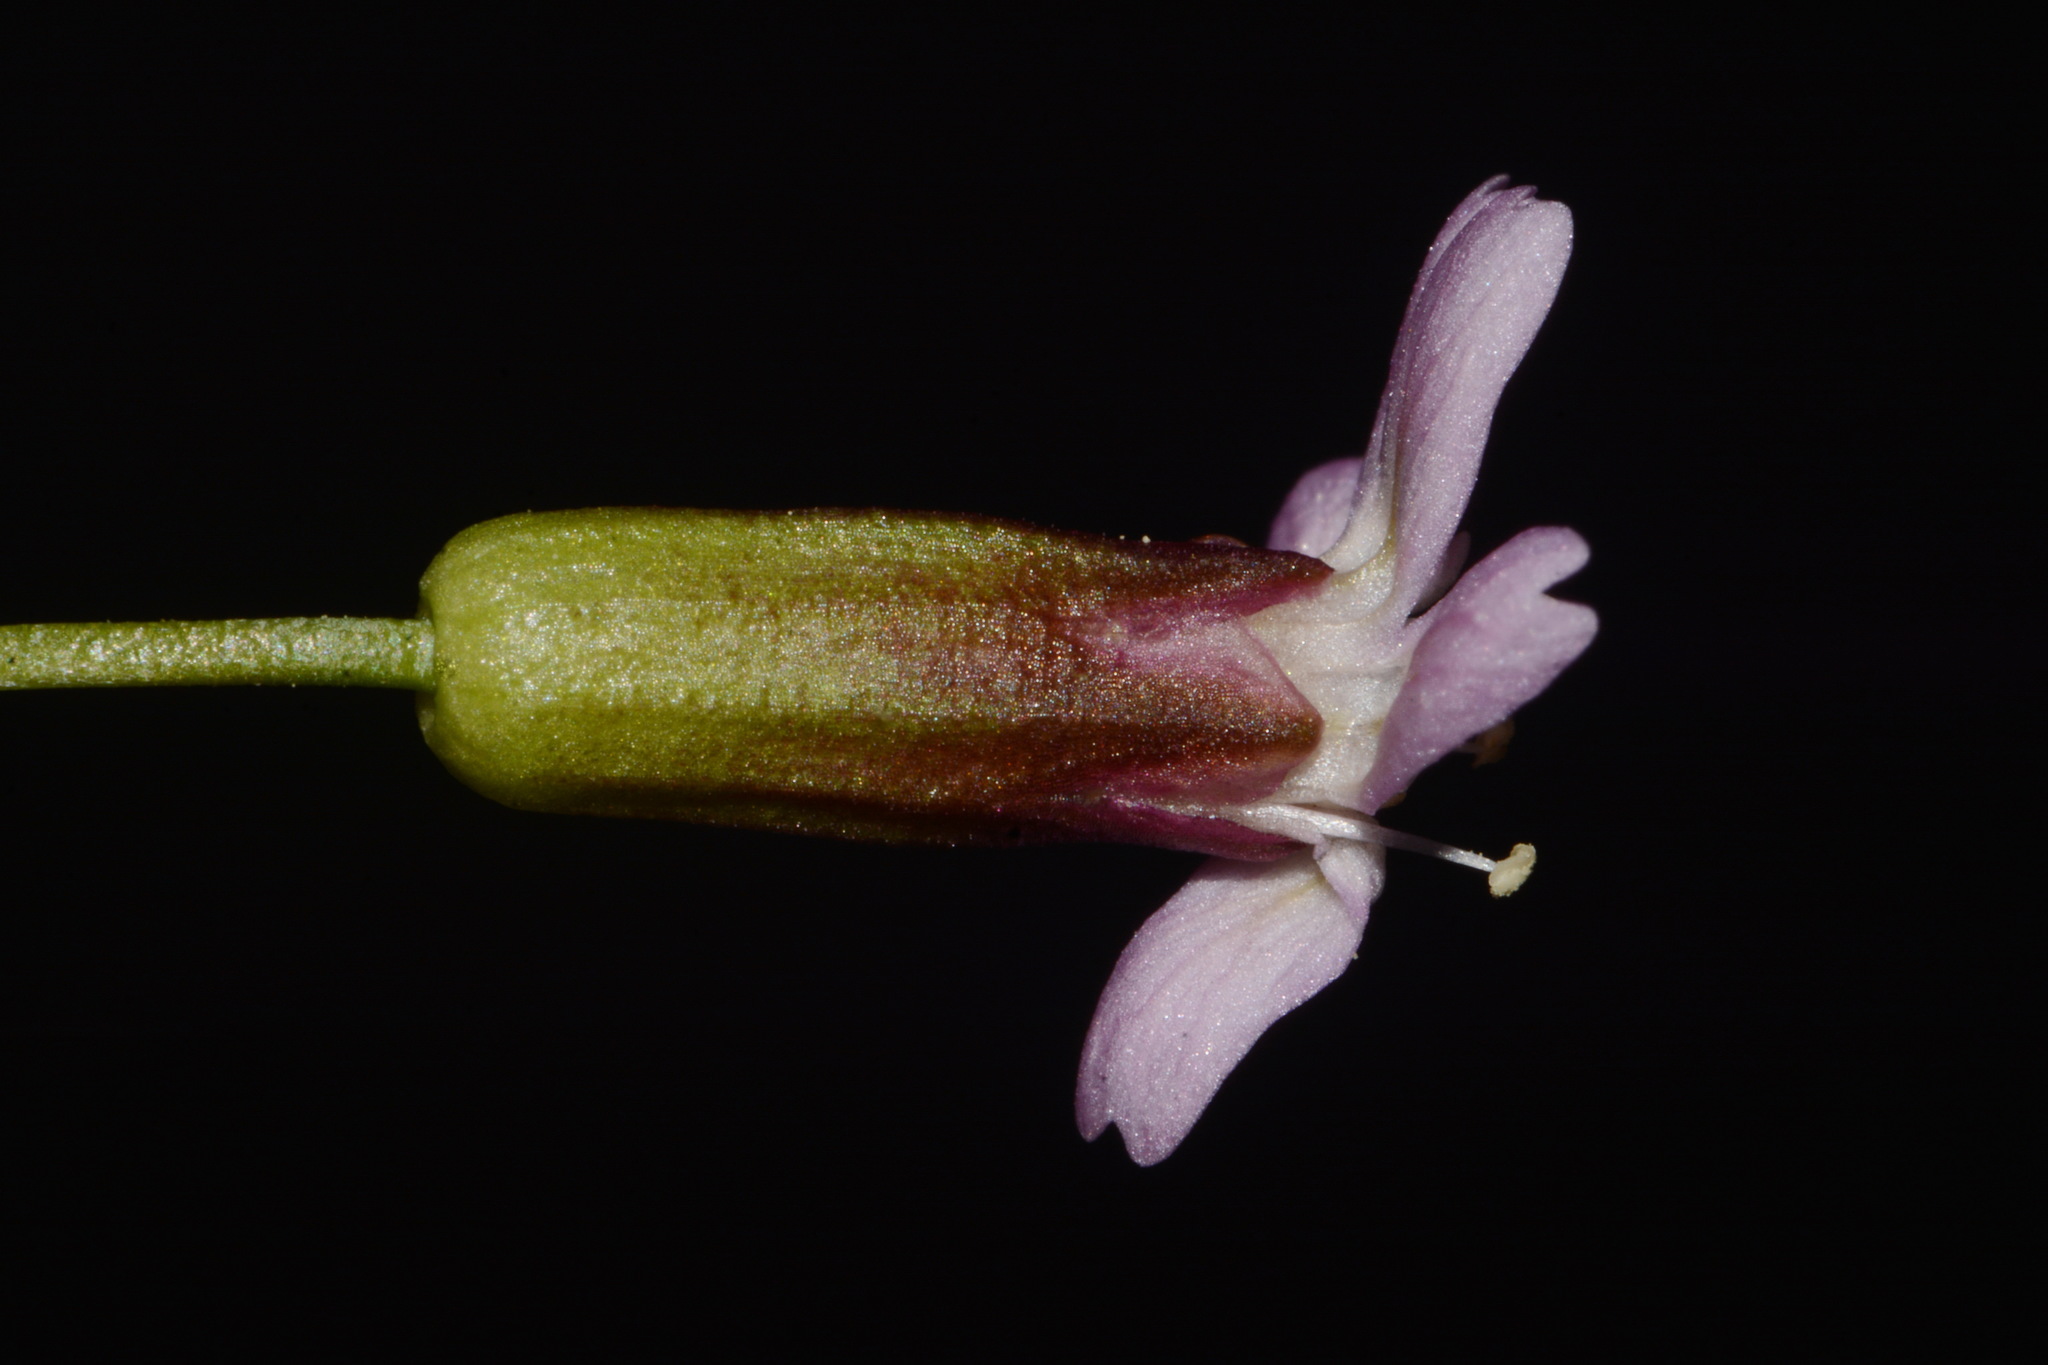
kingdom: Plantae
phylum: Tracheophyta
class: Magnoliopsida
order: Caryophyllales
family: Caryophyllaceae
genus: Silene
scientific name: Silene acaulis
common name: Moss campion
